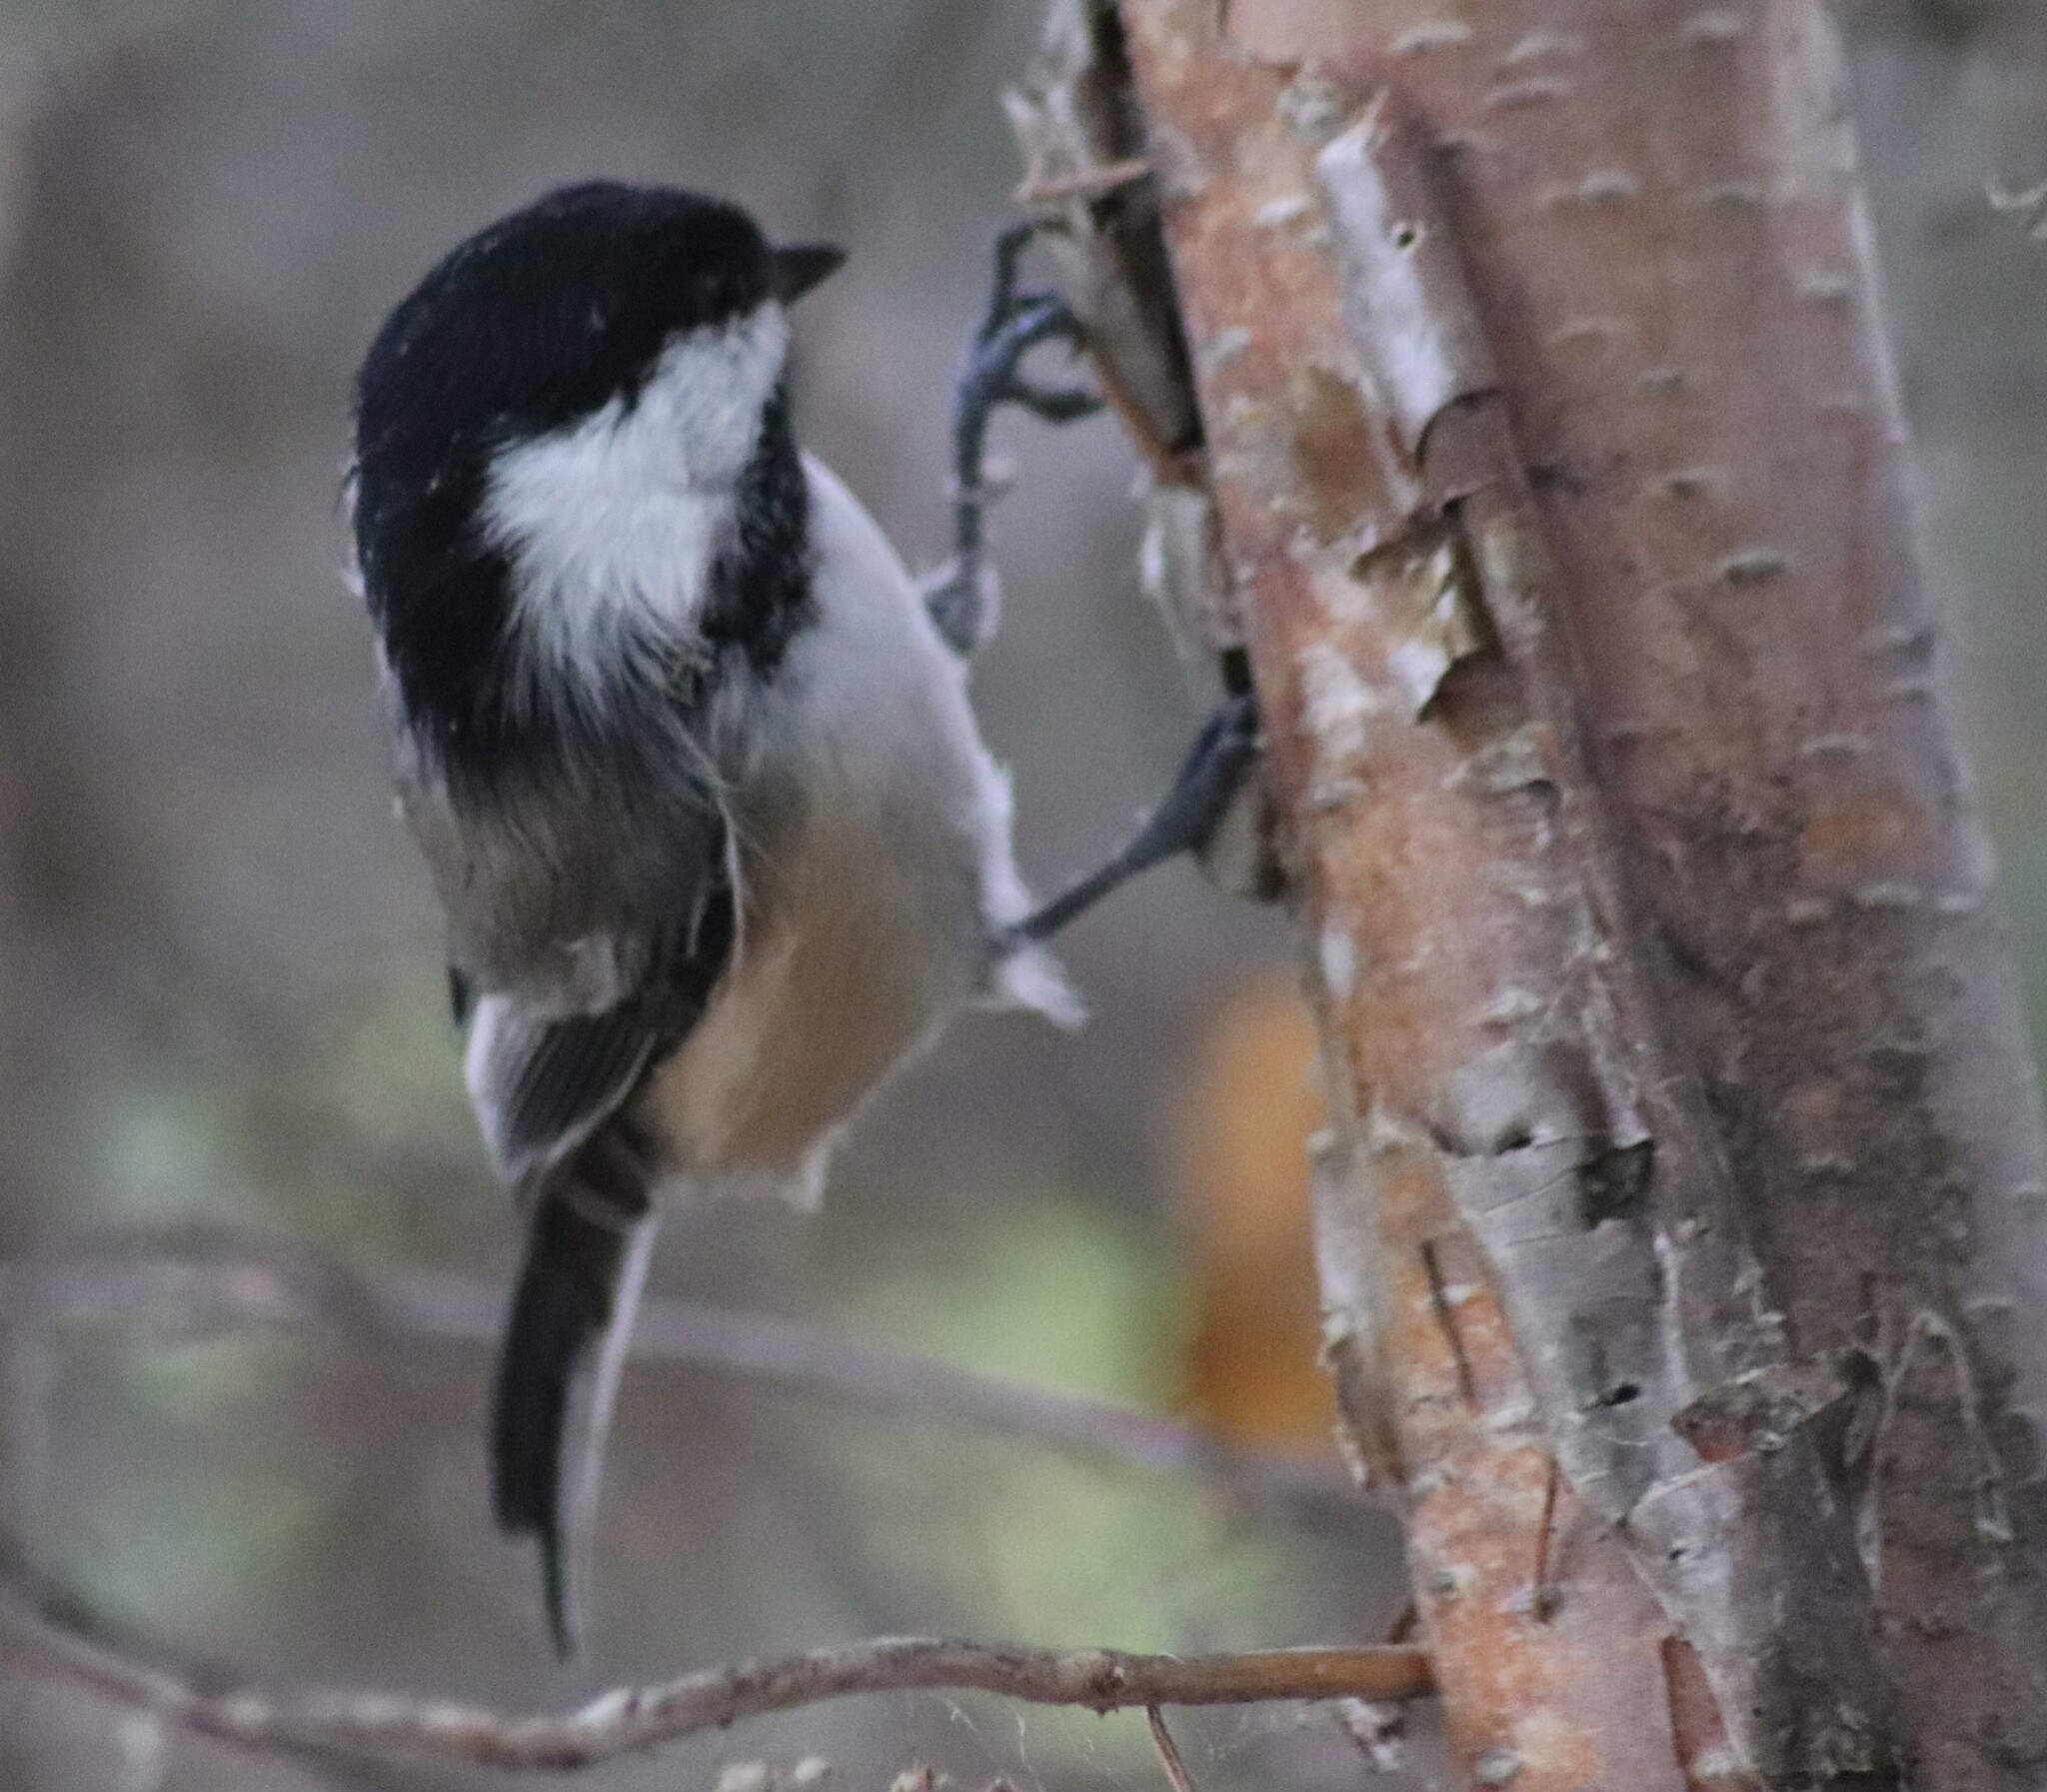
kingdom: Animalia
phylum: Chordata
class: Aves
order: Passeriformes
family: Paridae
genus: Poecile
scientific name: Poecile atricapillus
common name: Black-capped chickadee
